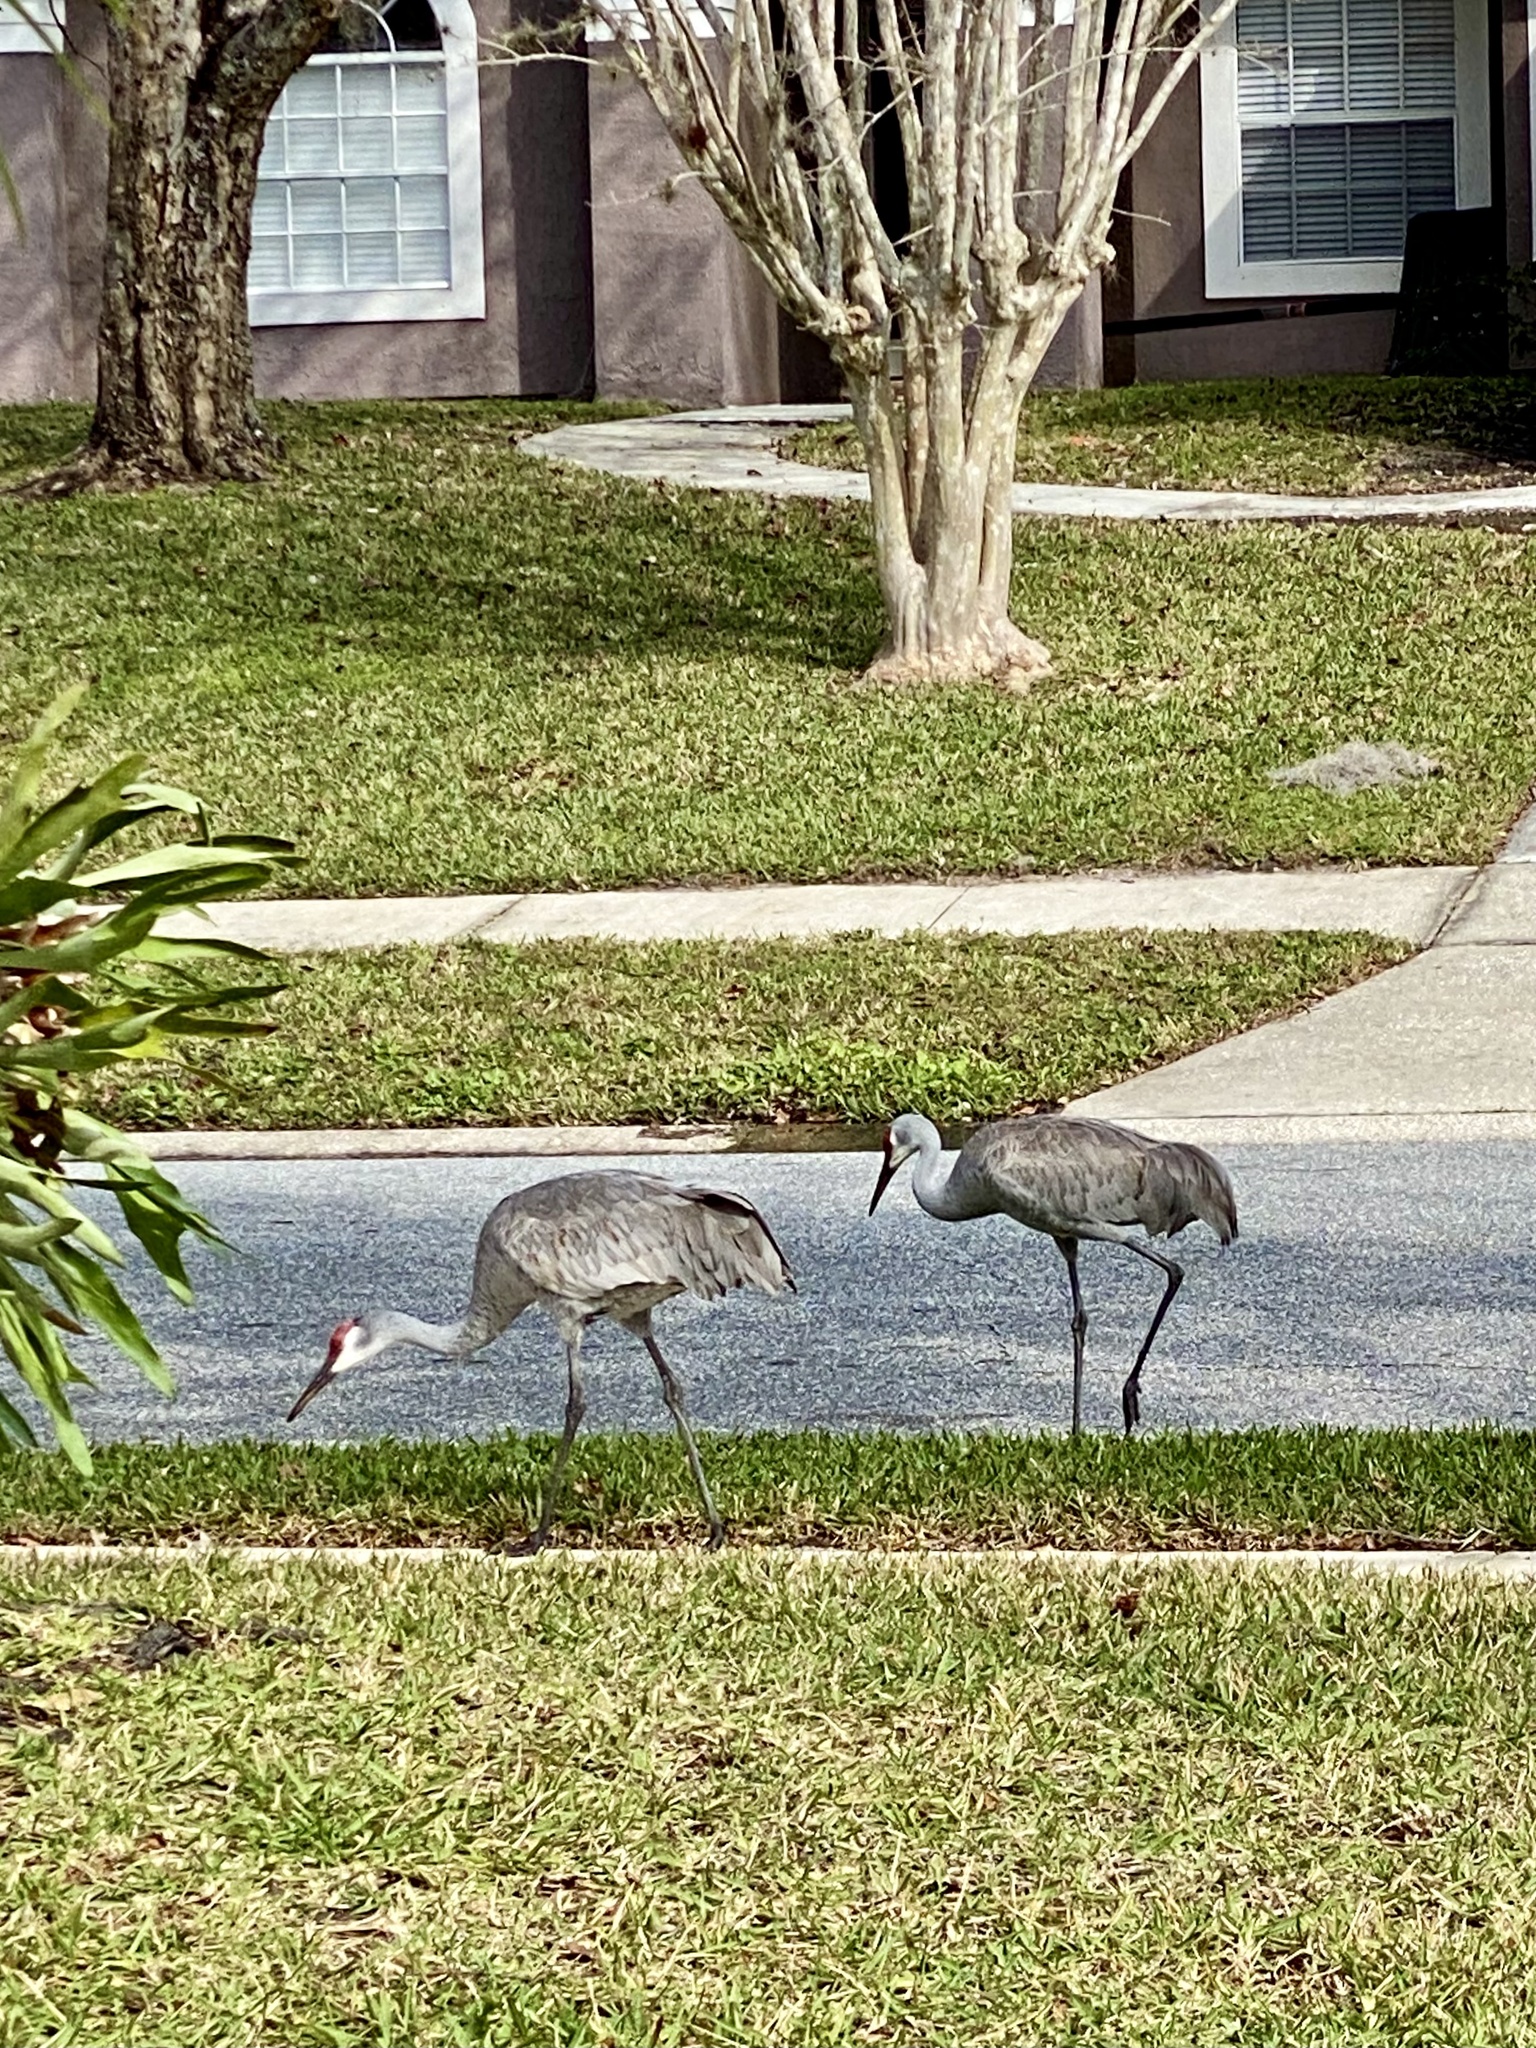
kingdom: Animalia
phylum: Chordata
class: Aves
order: Gruiformes
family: Gruidae
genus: Grus
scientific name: Grus canadensis
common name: Sandhill crane
